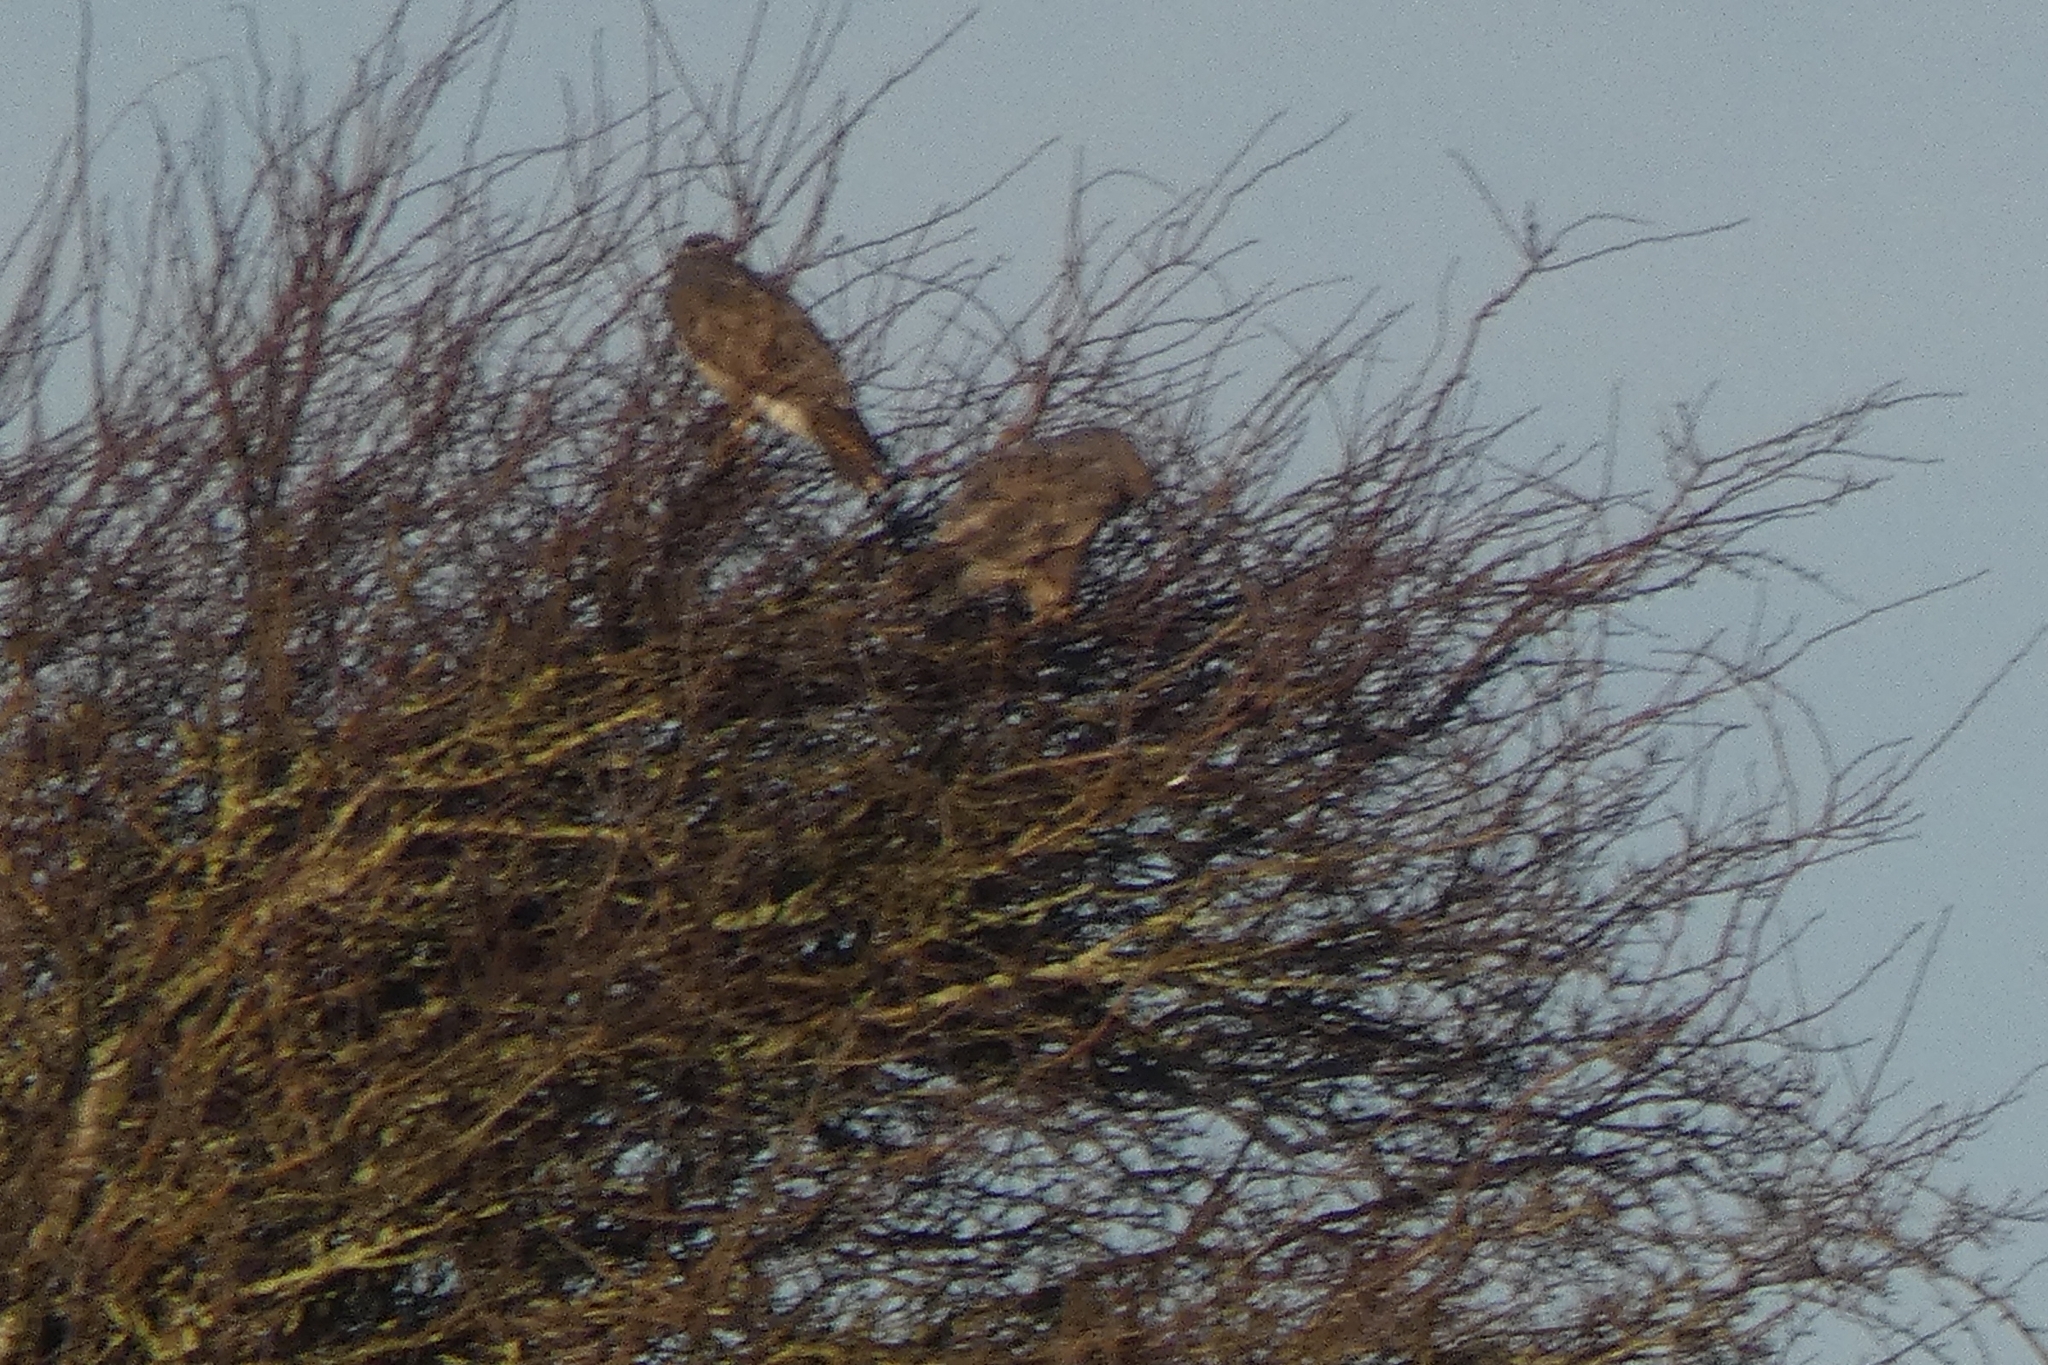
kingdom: Animalia
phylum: Chordata
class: Aves
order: Accipitriformes
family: Accipitridae
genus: Buteo
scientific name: Buteo buteo
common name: Common buzzard
